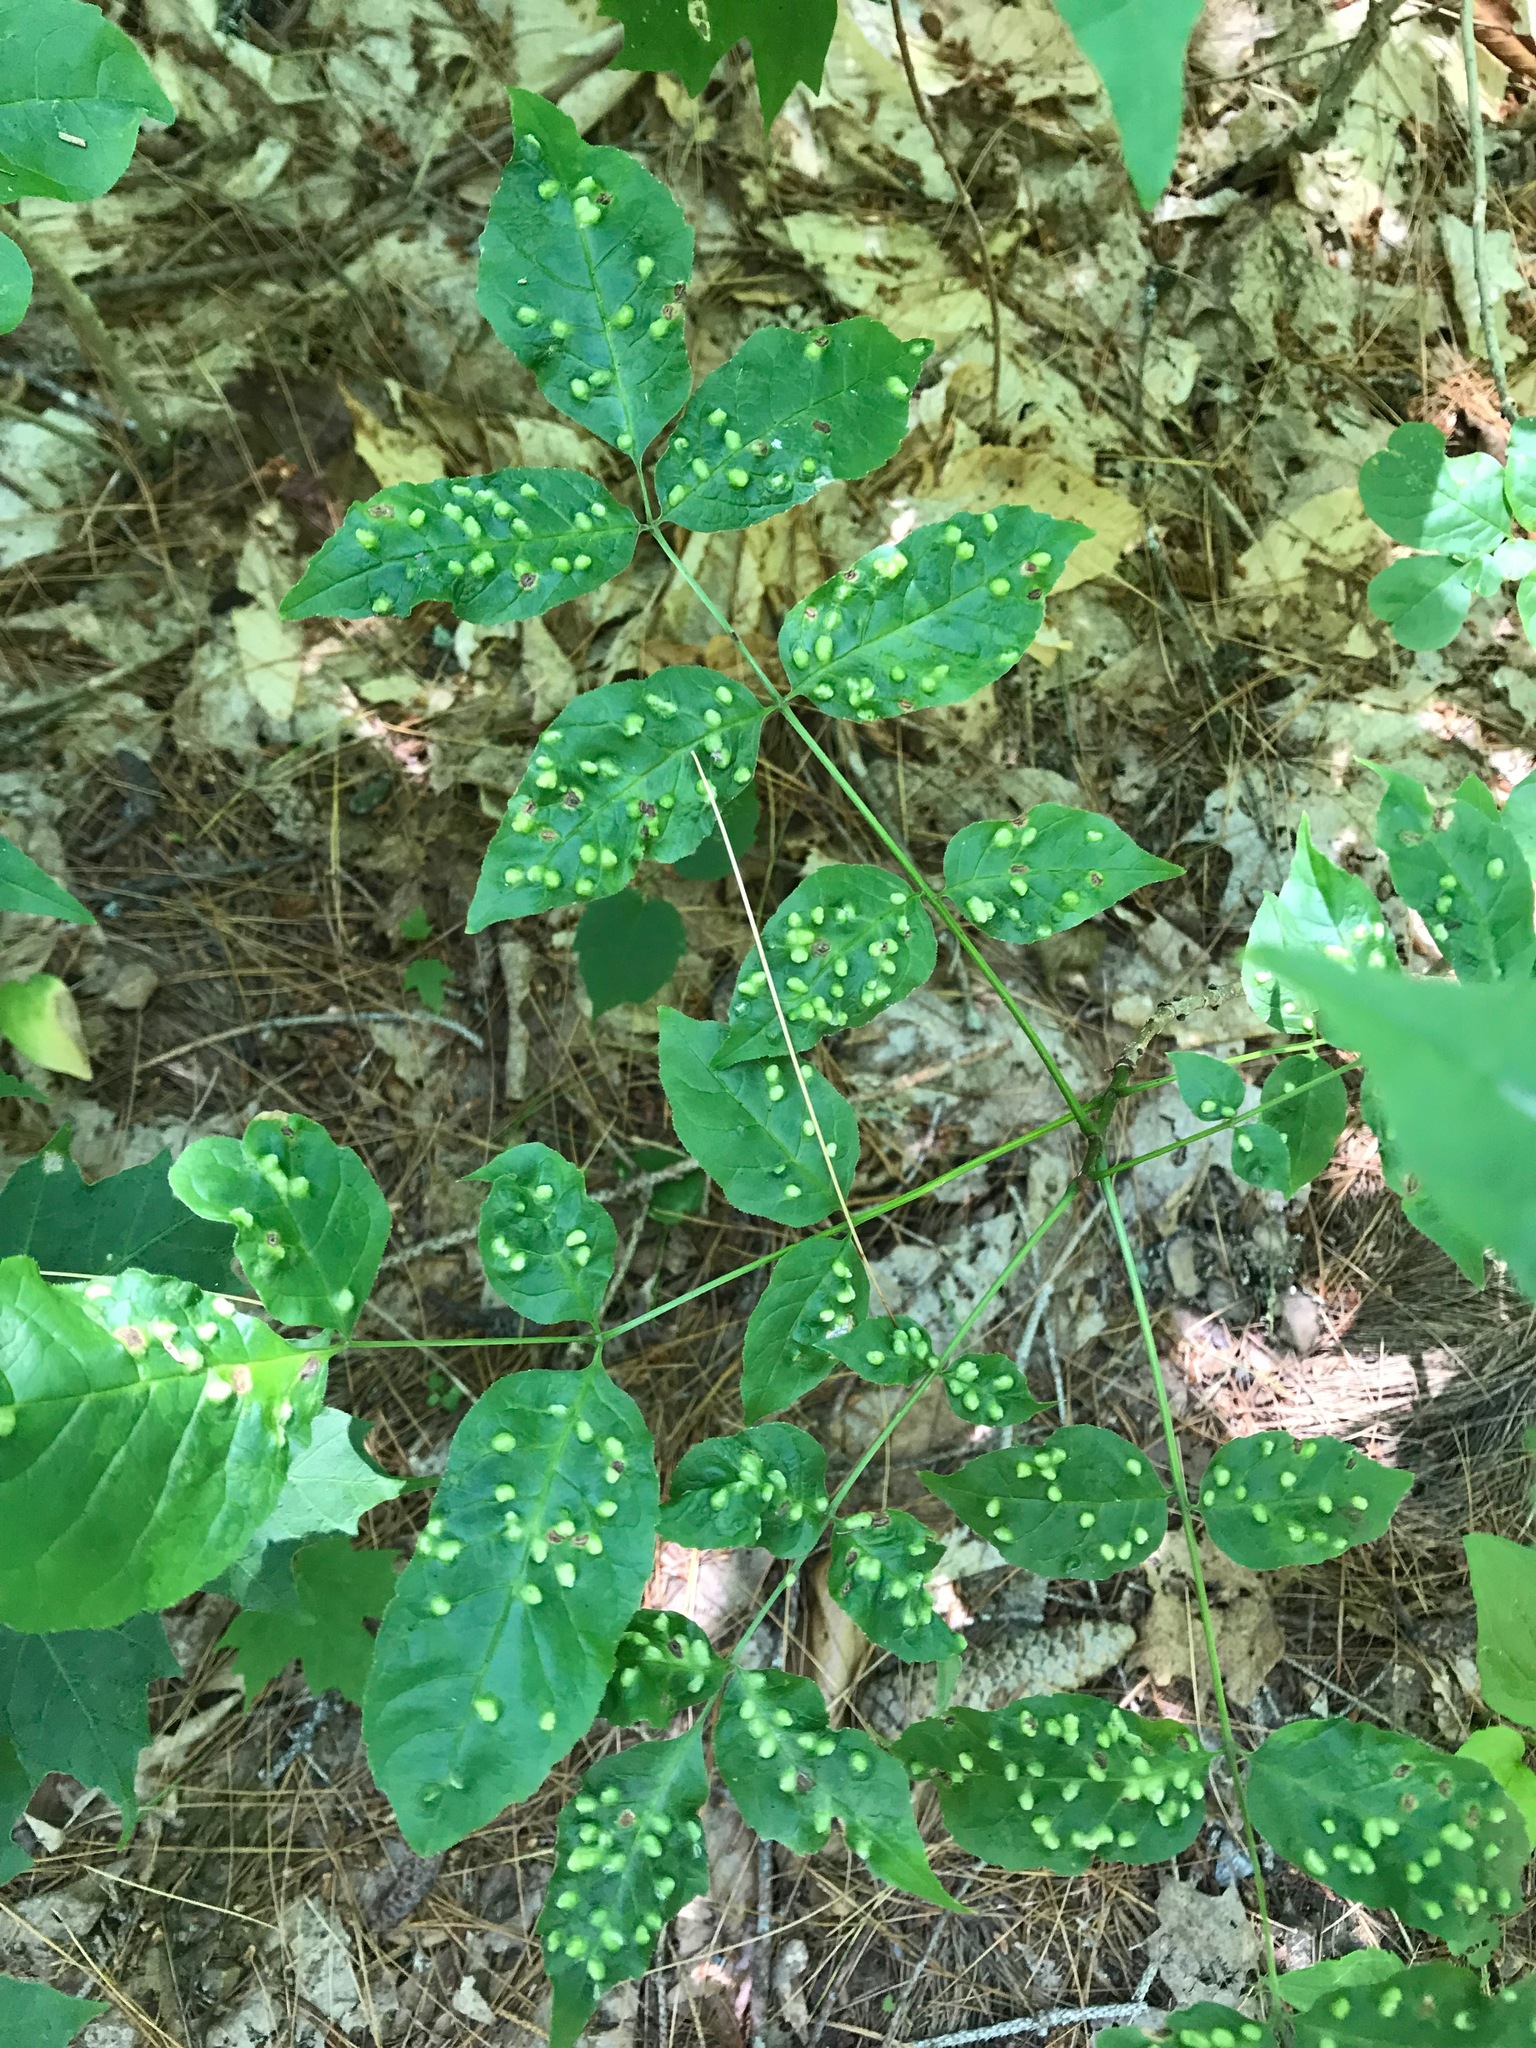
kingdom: Animalia
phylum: Arthropoda
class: Arachnida
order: Trombidiformes
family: Eriophyidae
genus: Aceria
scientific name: Aceria fraxinicola
